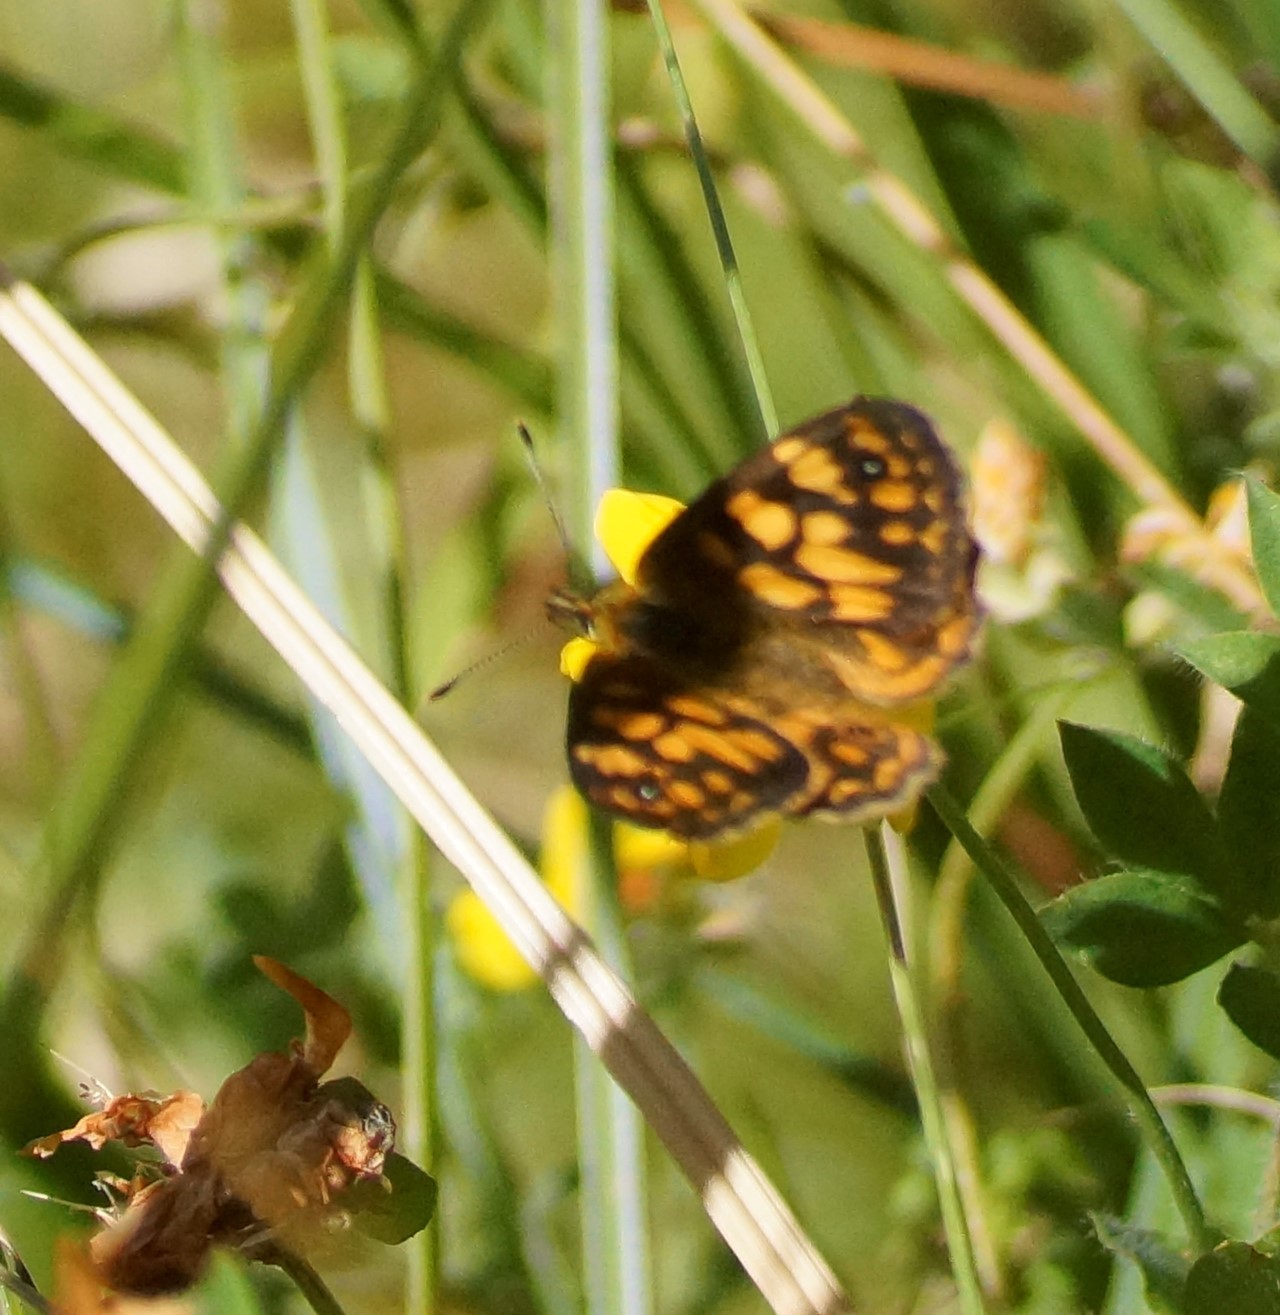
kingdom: Animalia
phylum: Arthropoda
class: Insecta
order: Lepidoptera
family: Nymphalidae
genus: Oreixenica
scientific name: Oreixenica correae
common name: Correa brown
